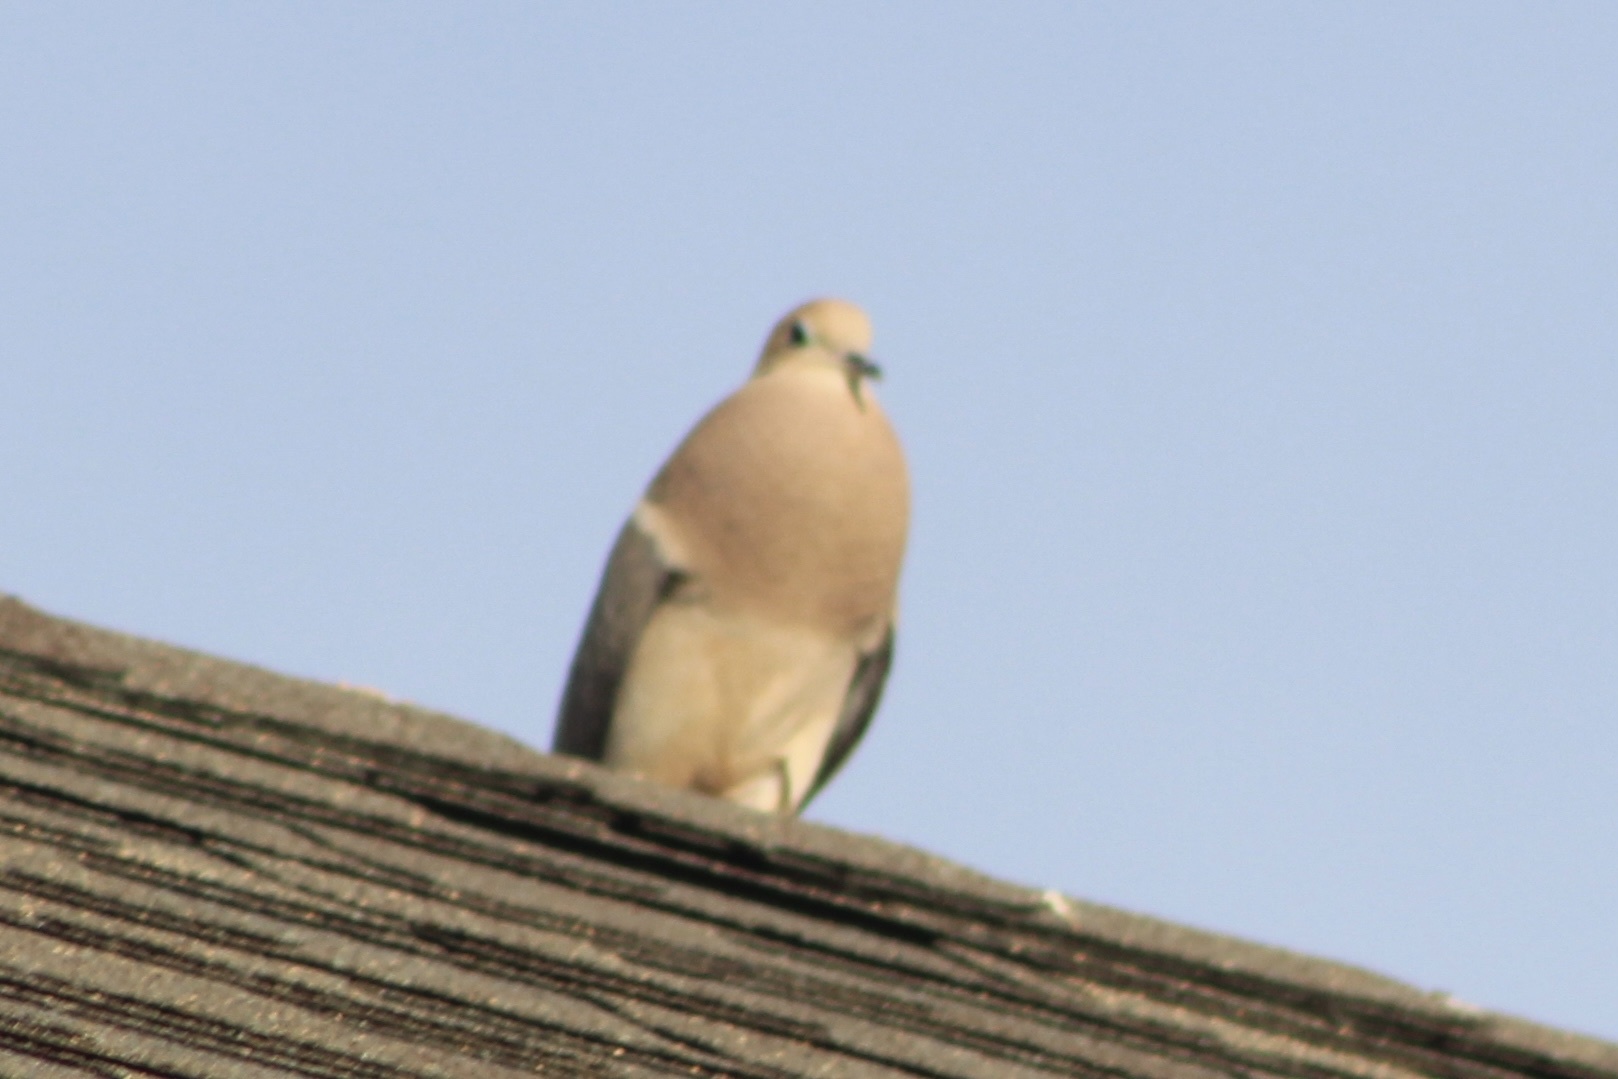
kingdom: Animalia
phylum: Chordata
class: Aves
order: Columbiformes
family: Columbidae
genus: Zenaida
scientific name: Zenaida macroura
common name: Mourning dove
